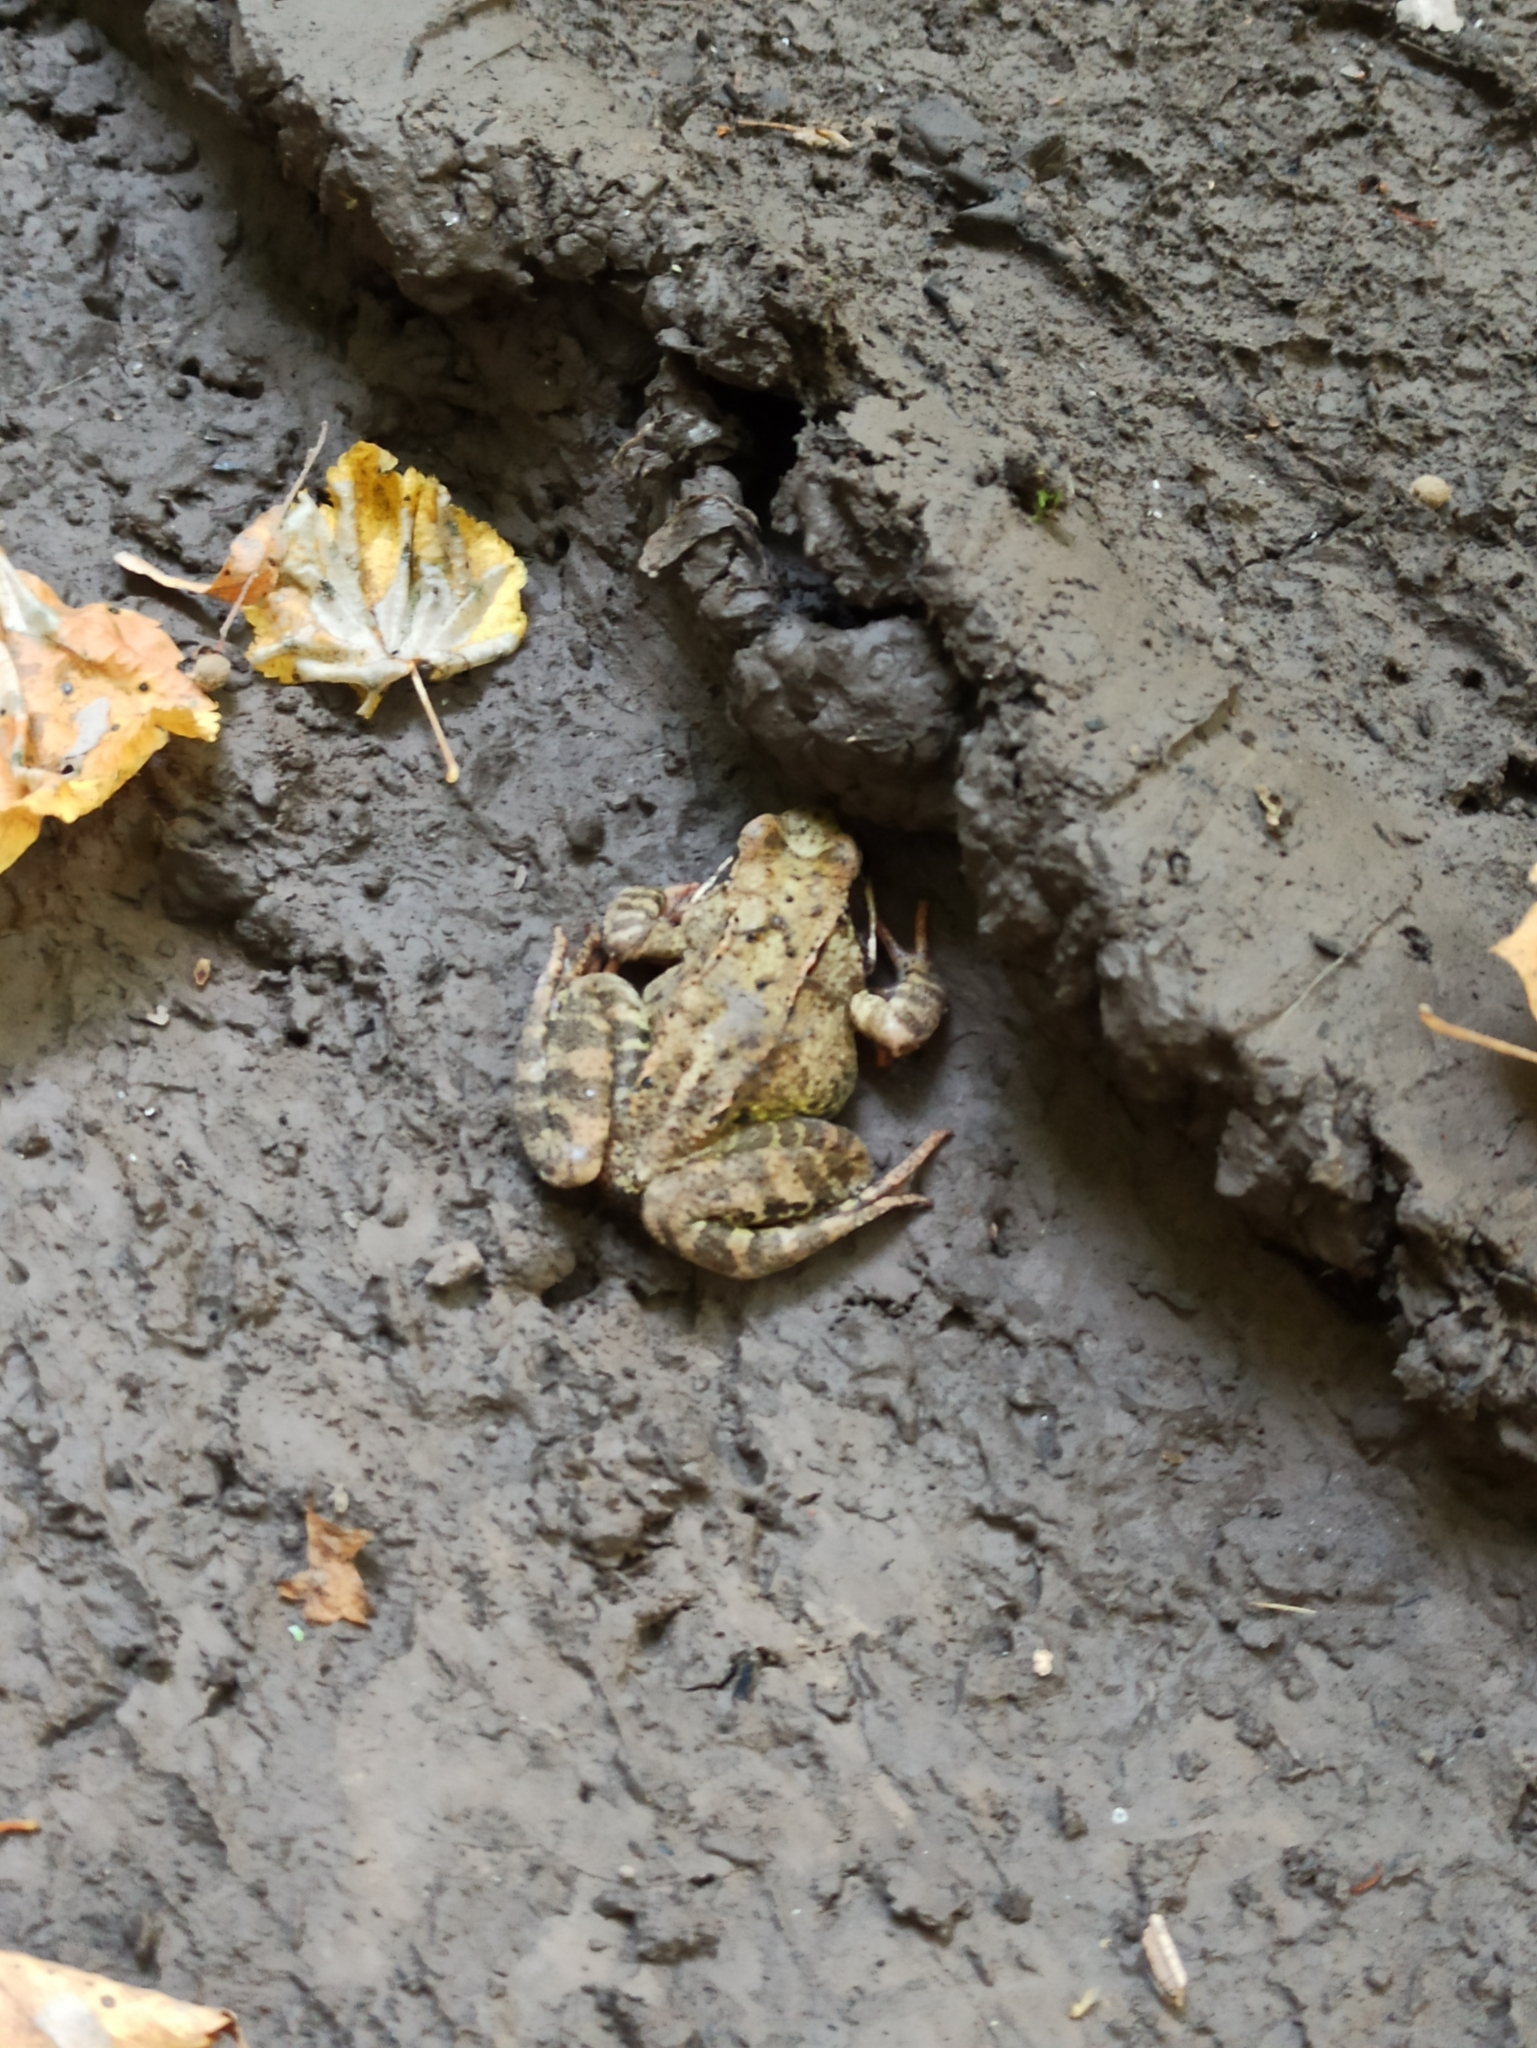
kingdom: Animalia
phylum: Chordata
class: Amphibia
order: Anura
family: Ranidae
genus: Rana
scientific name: Rana temporaria
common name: Common frog
